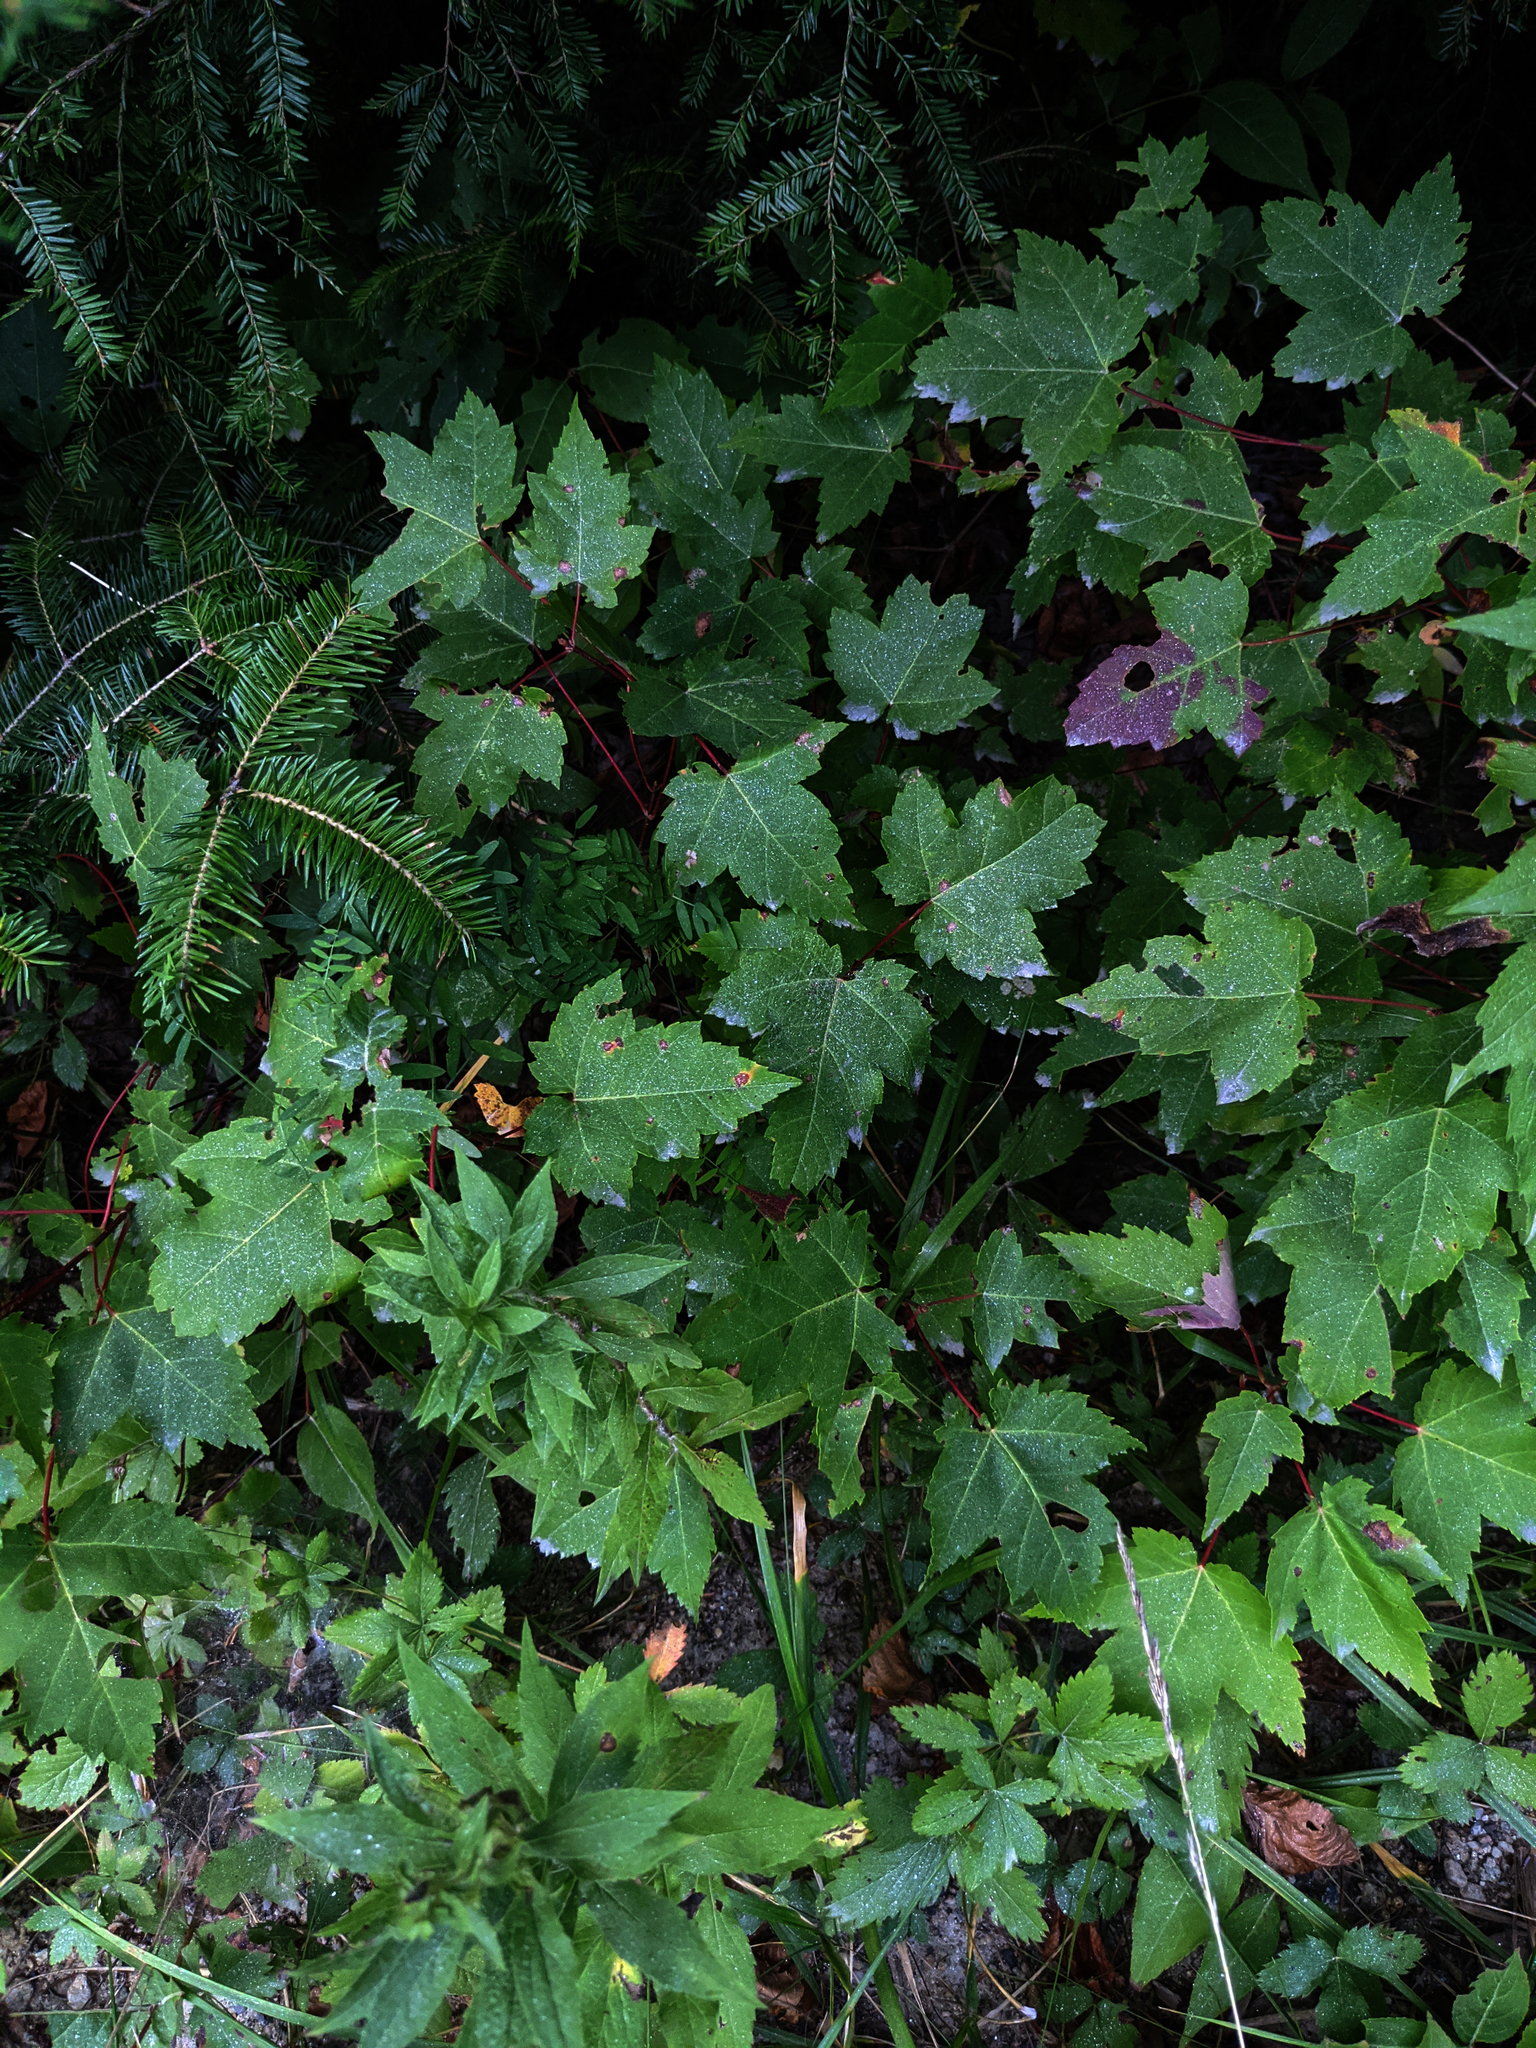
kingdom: Plantae
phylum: Tracheophyta
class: Pinopsida
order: Pinales
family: Pinaceae
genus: Tsuga
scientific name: Tsuga canadensis
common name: Eastern hemlock
